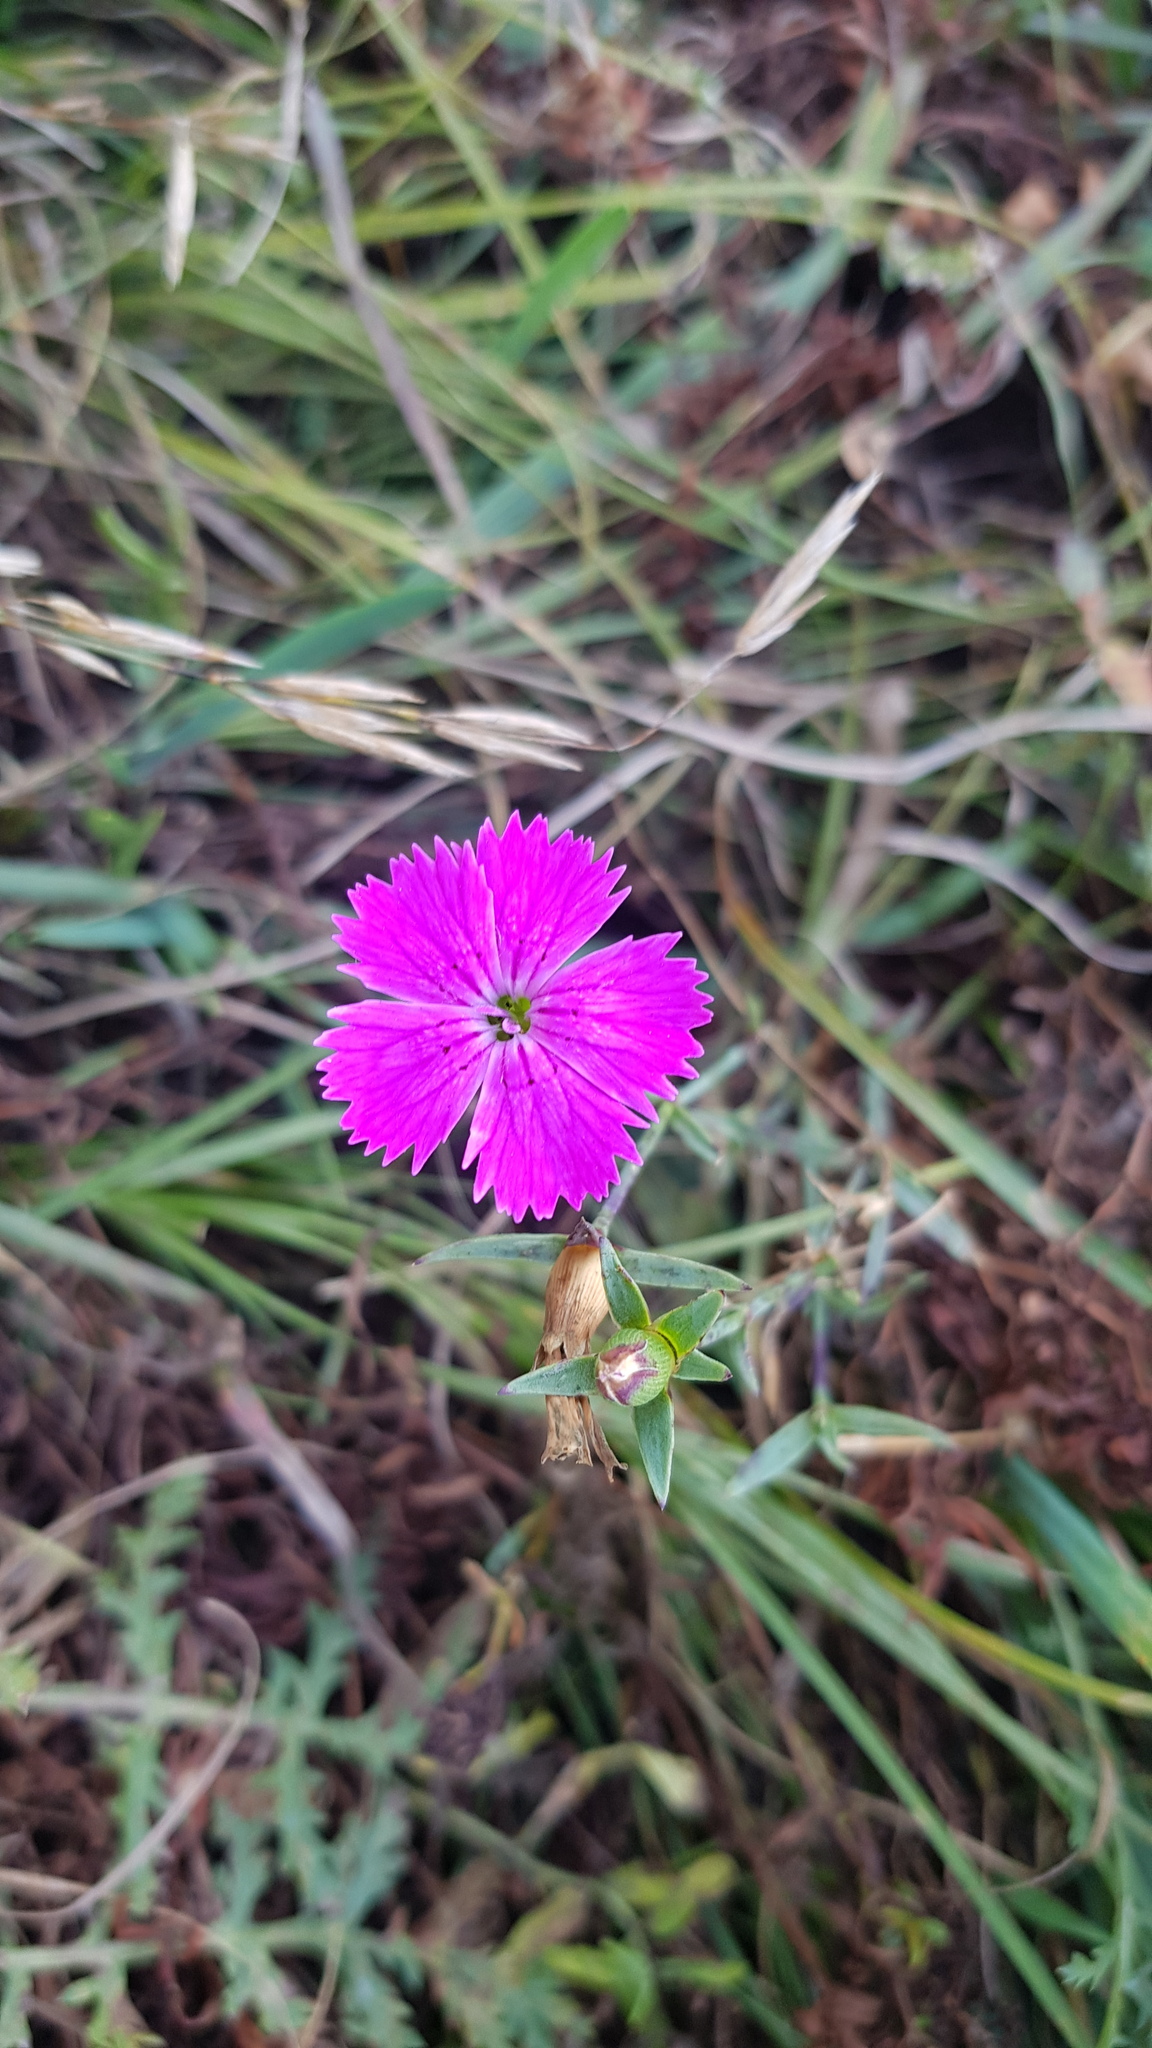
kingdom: Plantae
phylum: Tracheophyta
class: Magnoliopsida
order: Caryophyllales
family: Caryophyllaceae
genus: Dianthus
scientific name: Dianthus chinensis
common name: Rainbow pink
